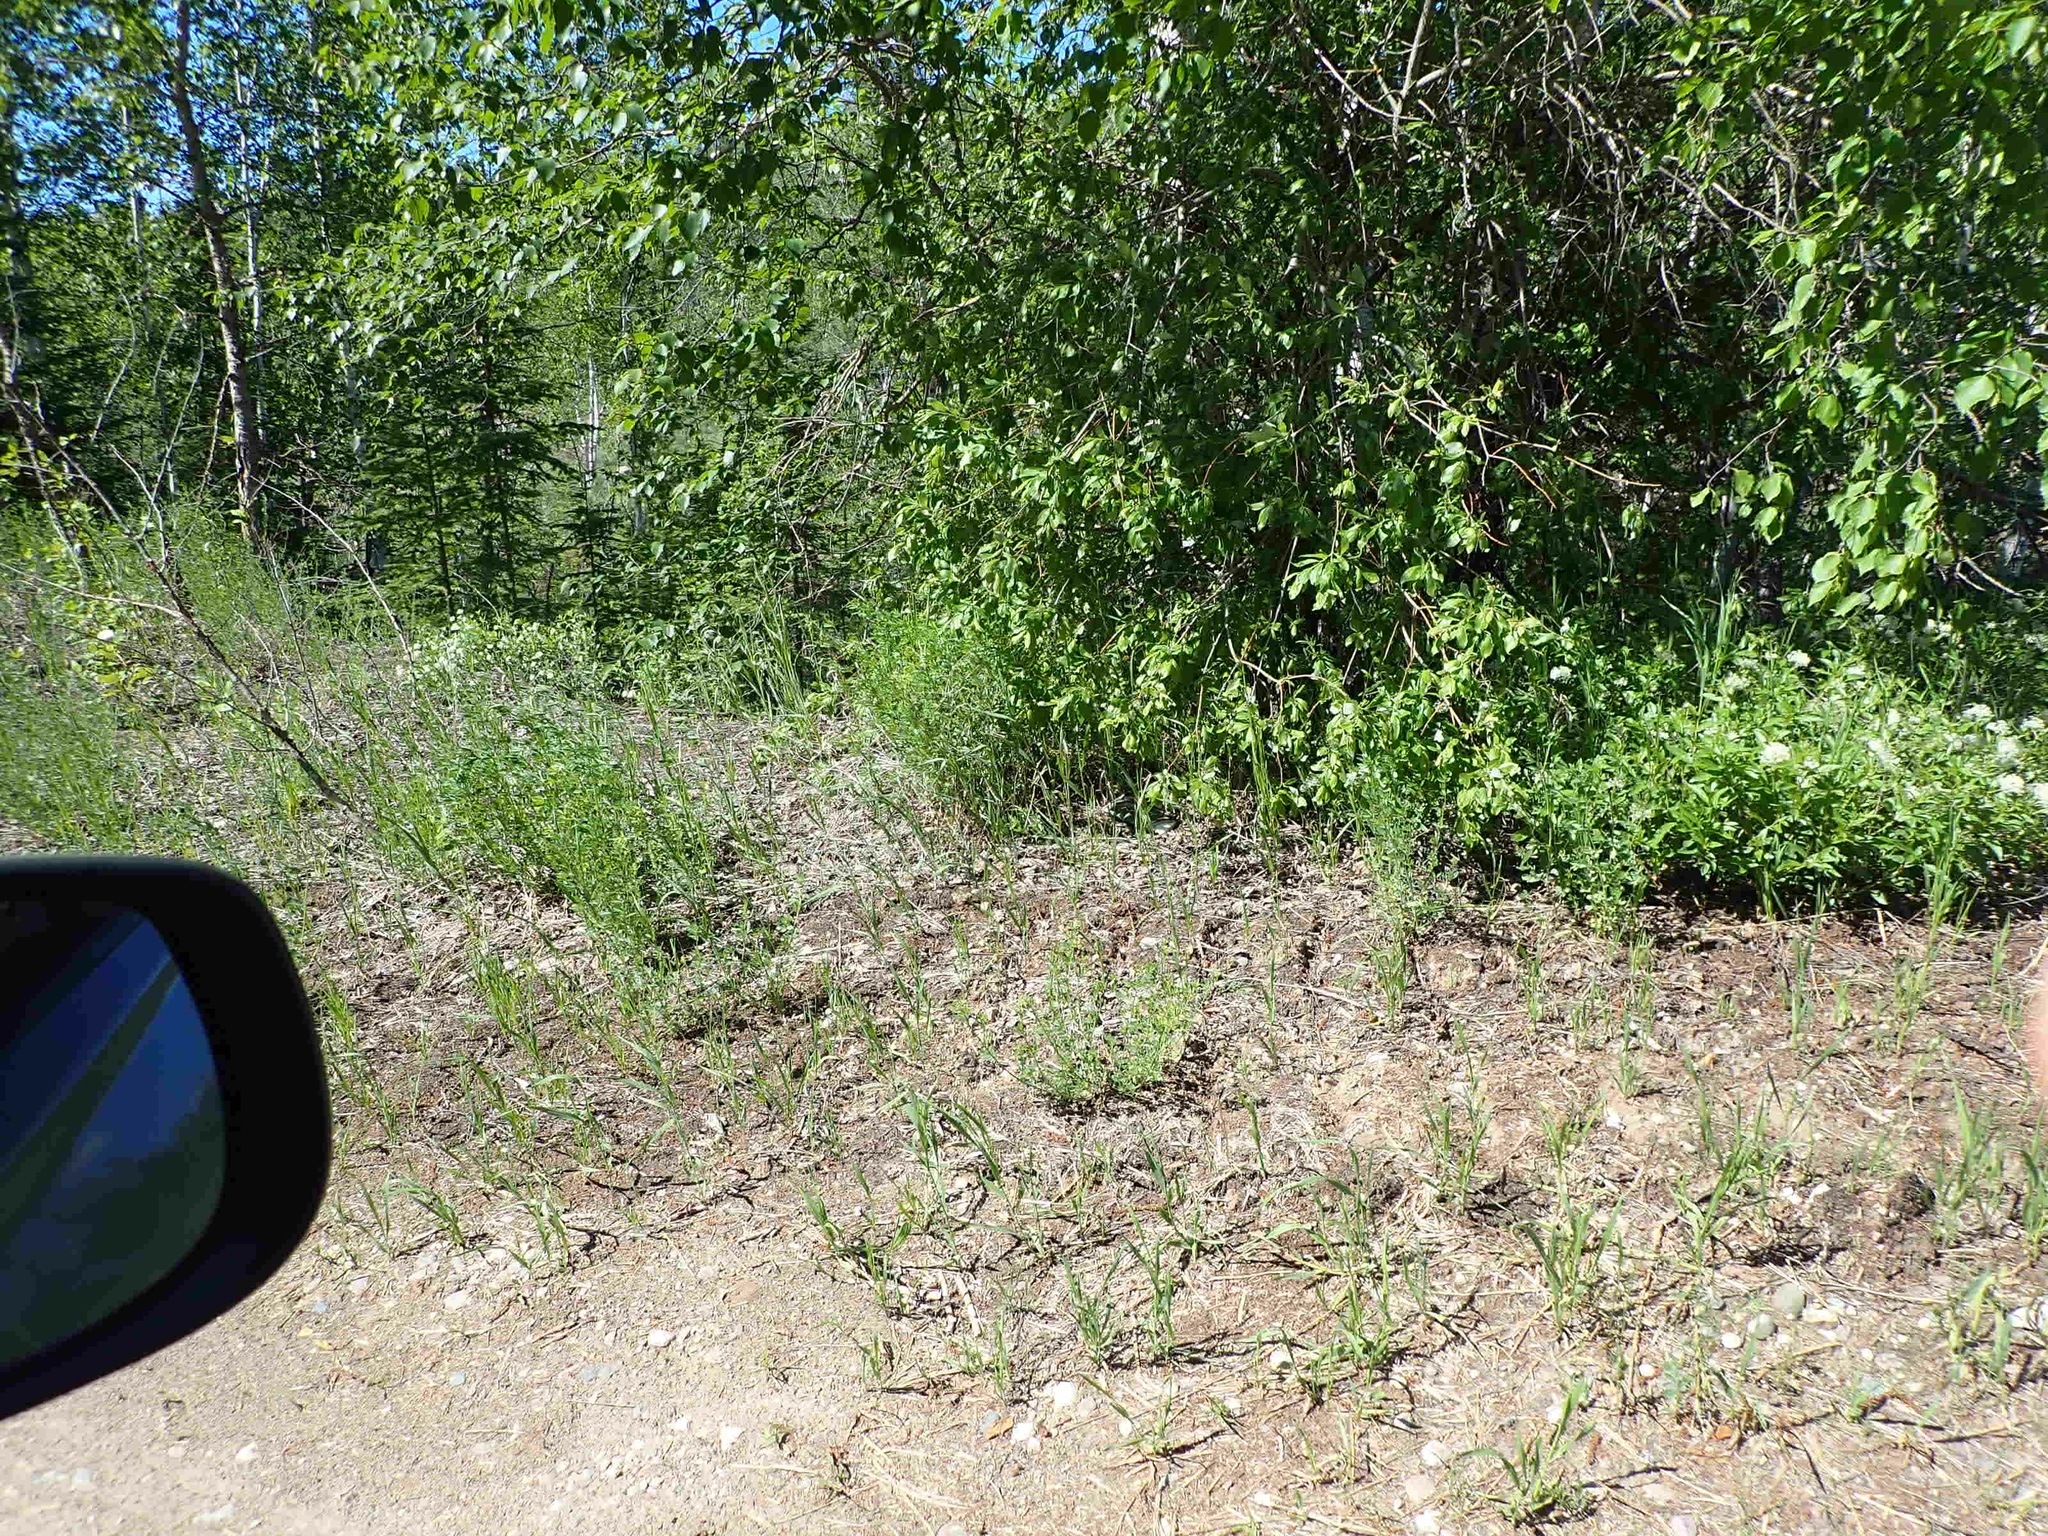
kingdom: Plantae
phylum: Tracheophyta
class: Magnoliopsida
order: Rosales
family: Rhamnaceae
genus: Ceanothus
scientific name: Ceanothus herbaceus
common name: Inland ceanothus
